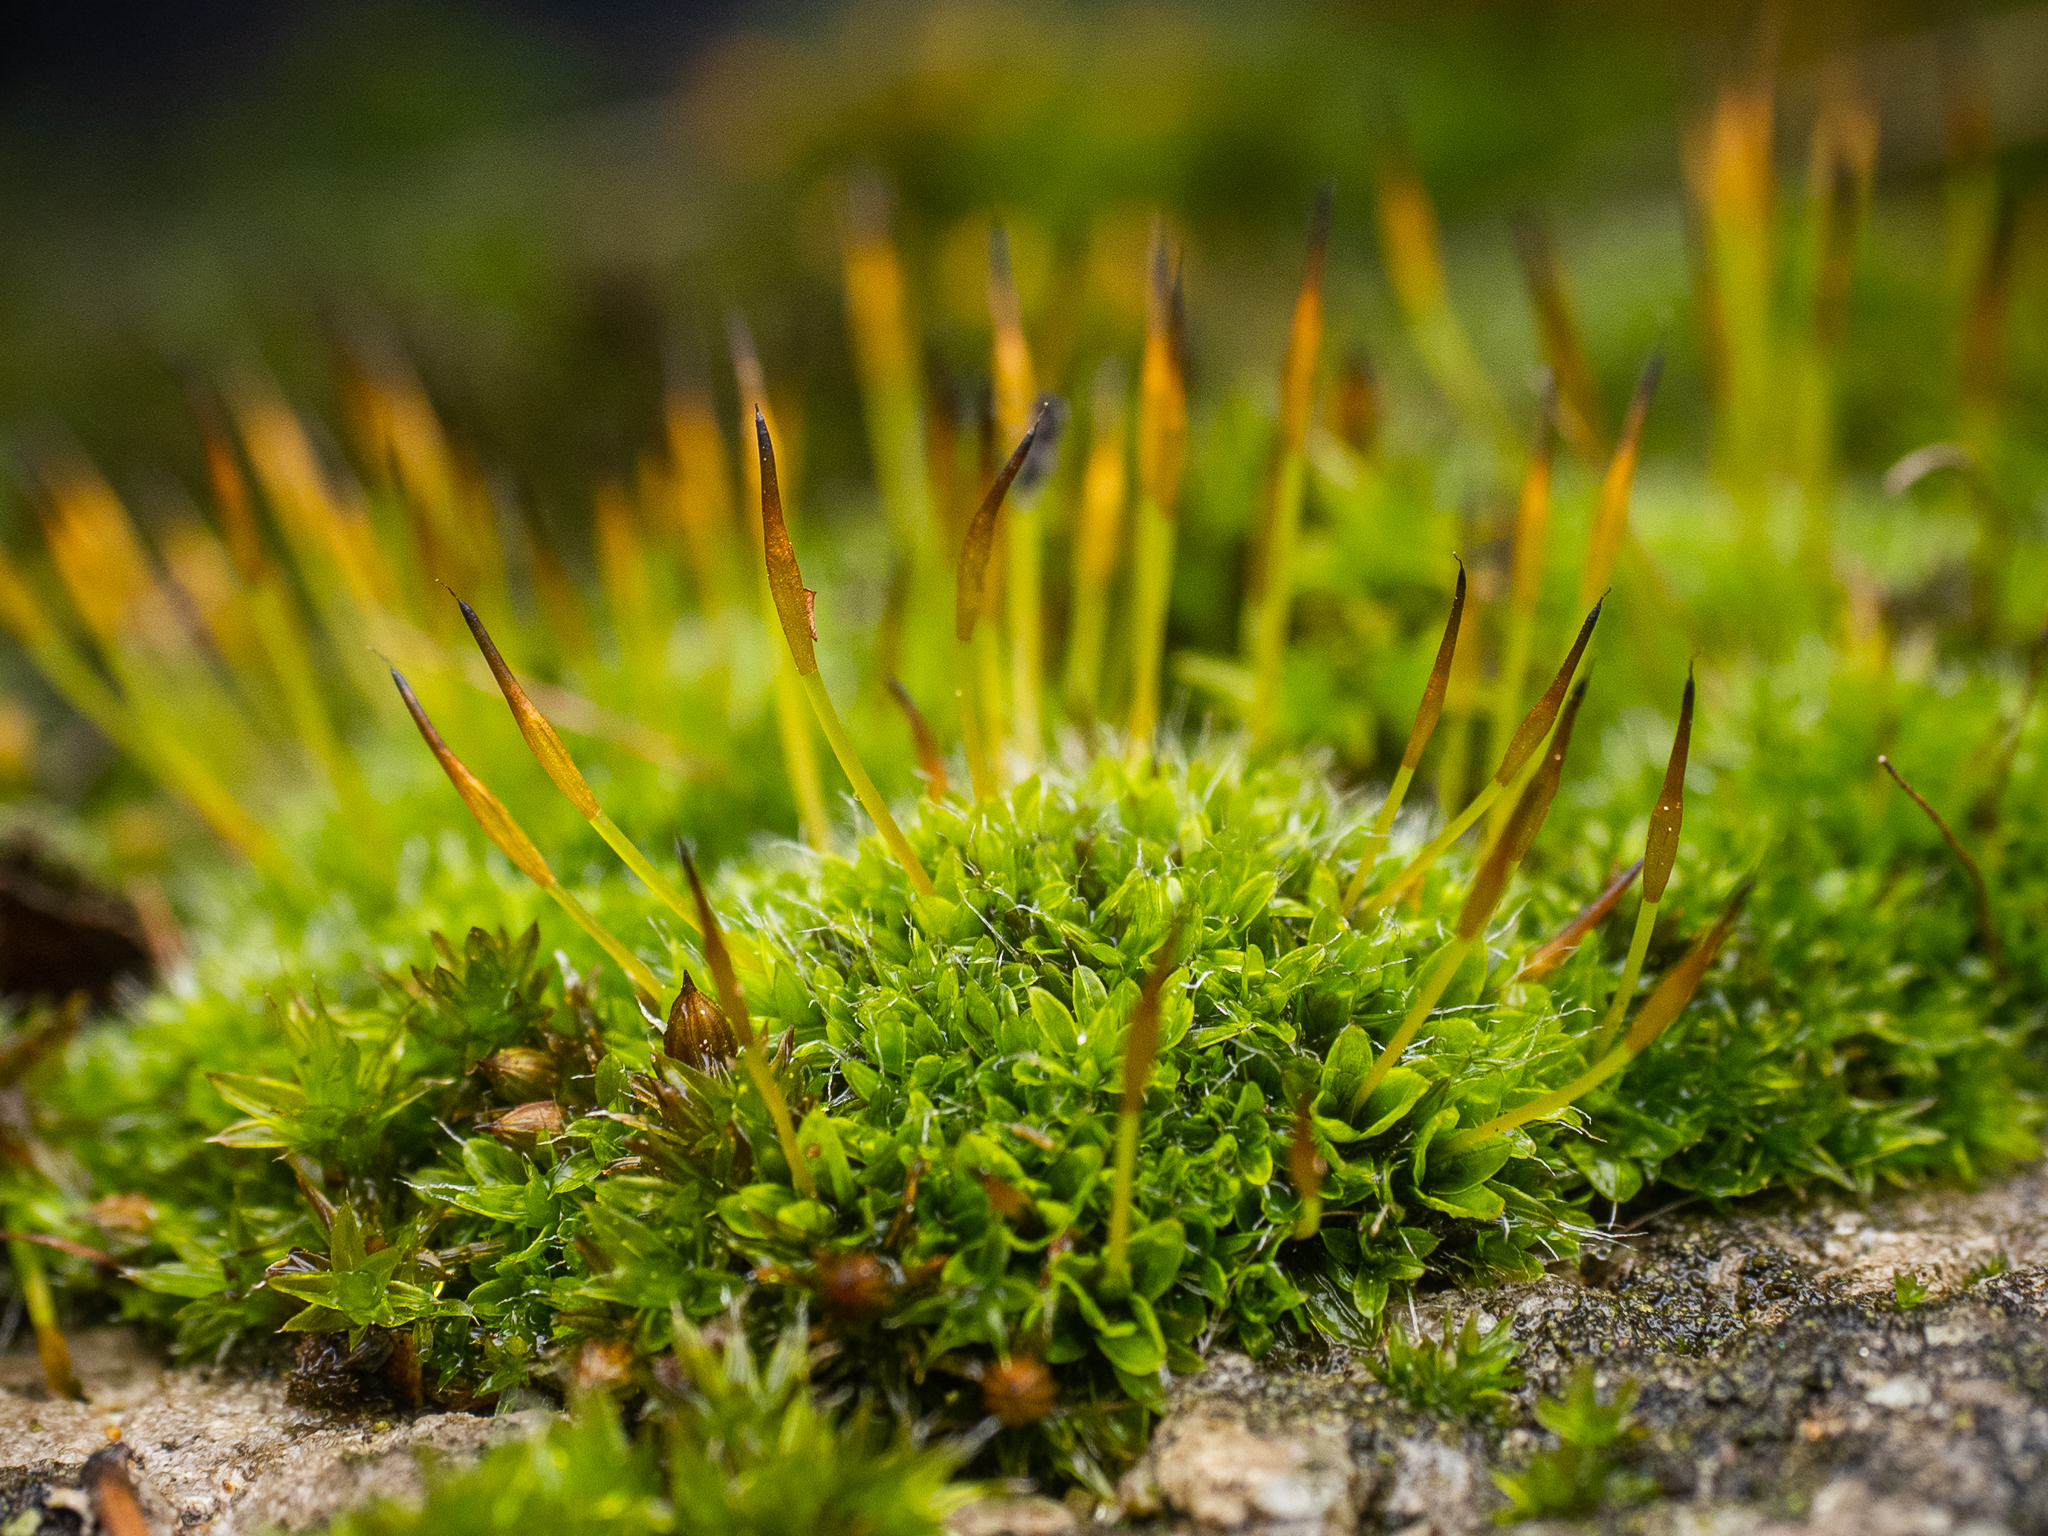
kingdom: Plantae
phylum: Bryophyta
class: Bryopsida
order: Pottiales
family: Pottiaceae
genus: Tortula
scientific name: Tortula muralis
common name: Wall screw-moss
